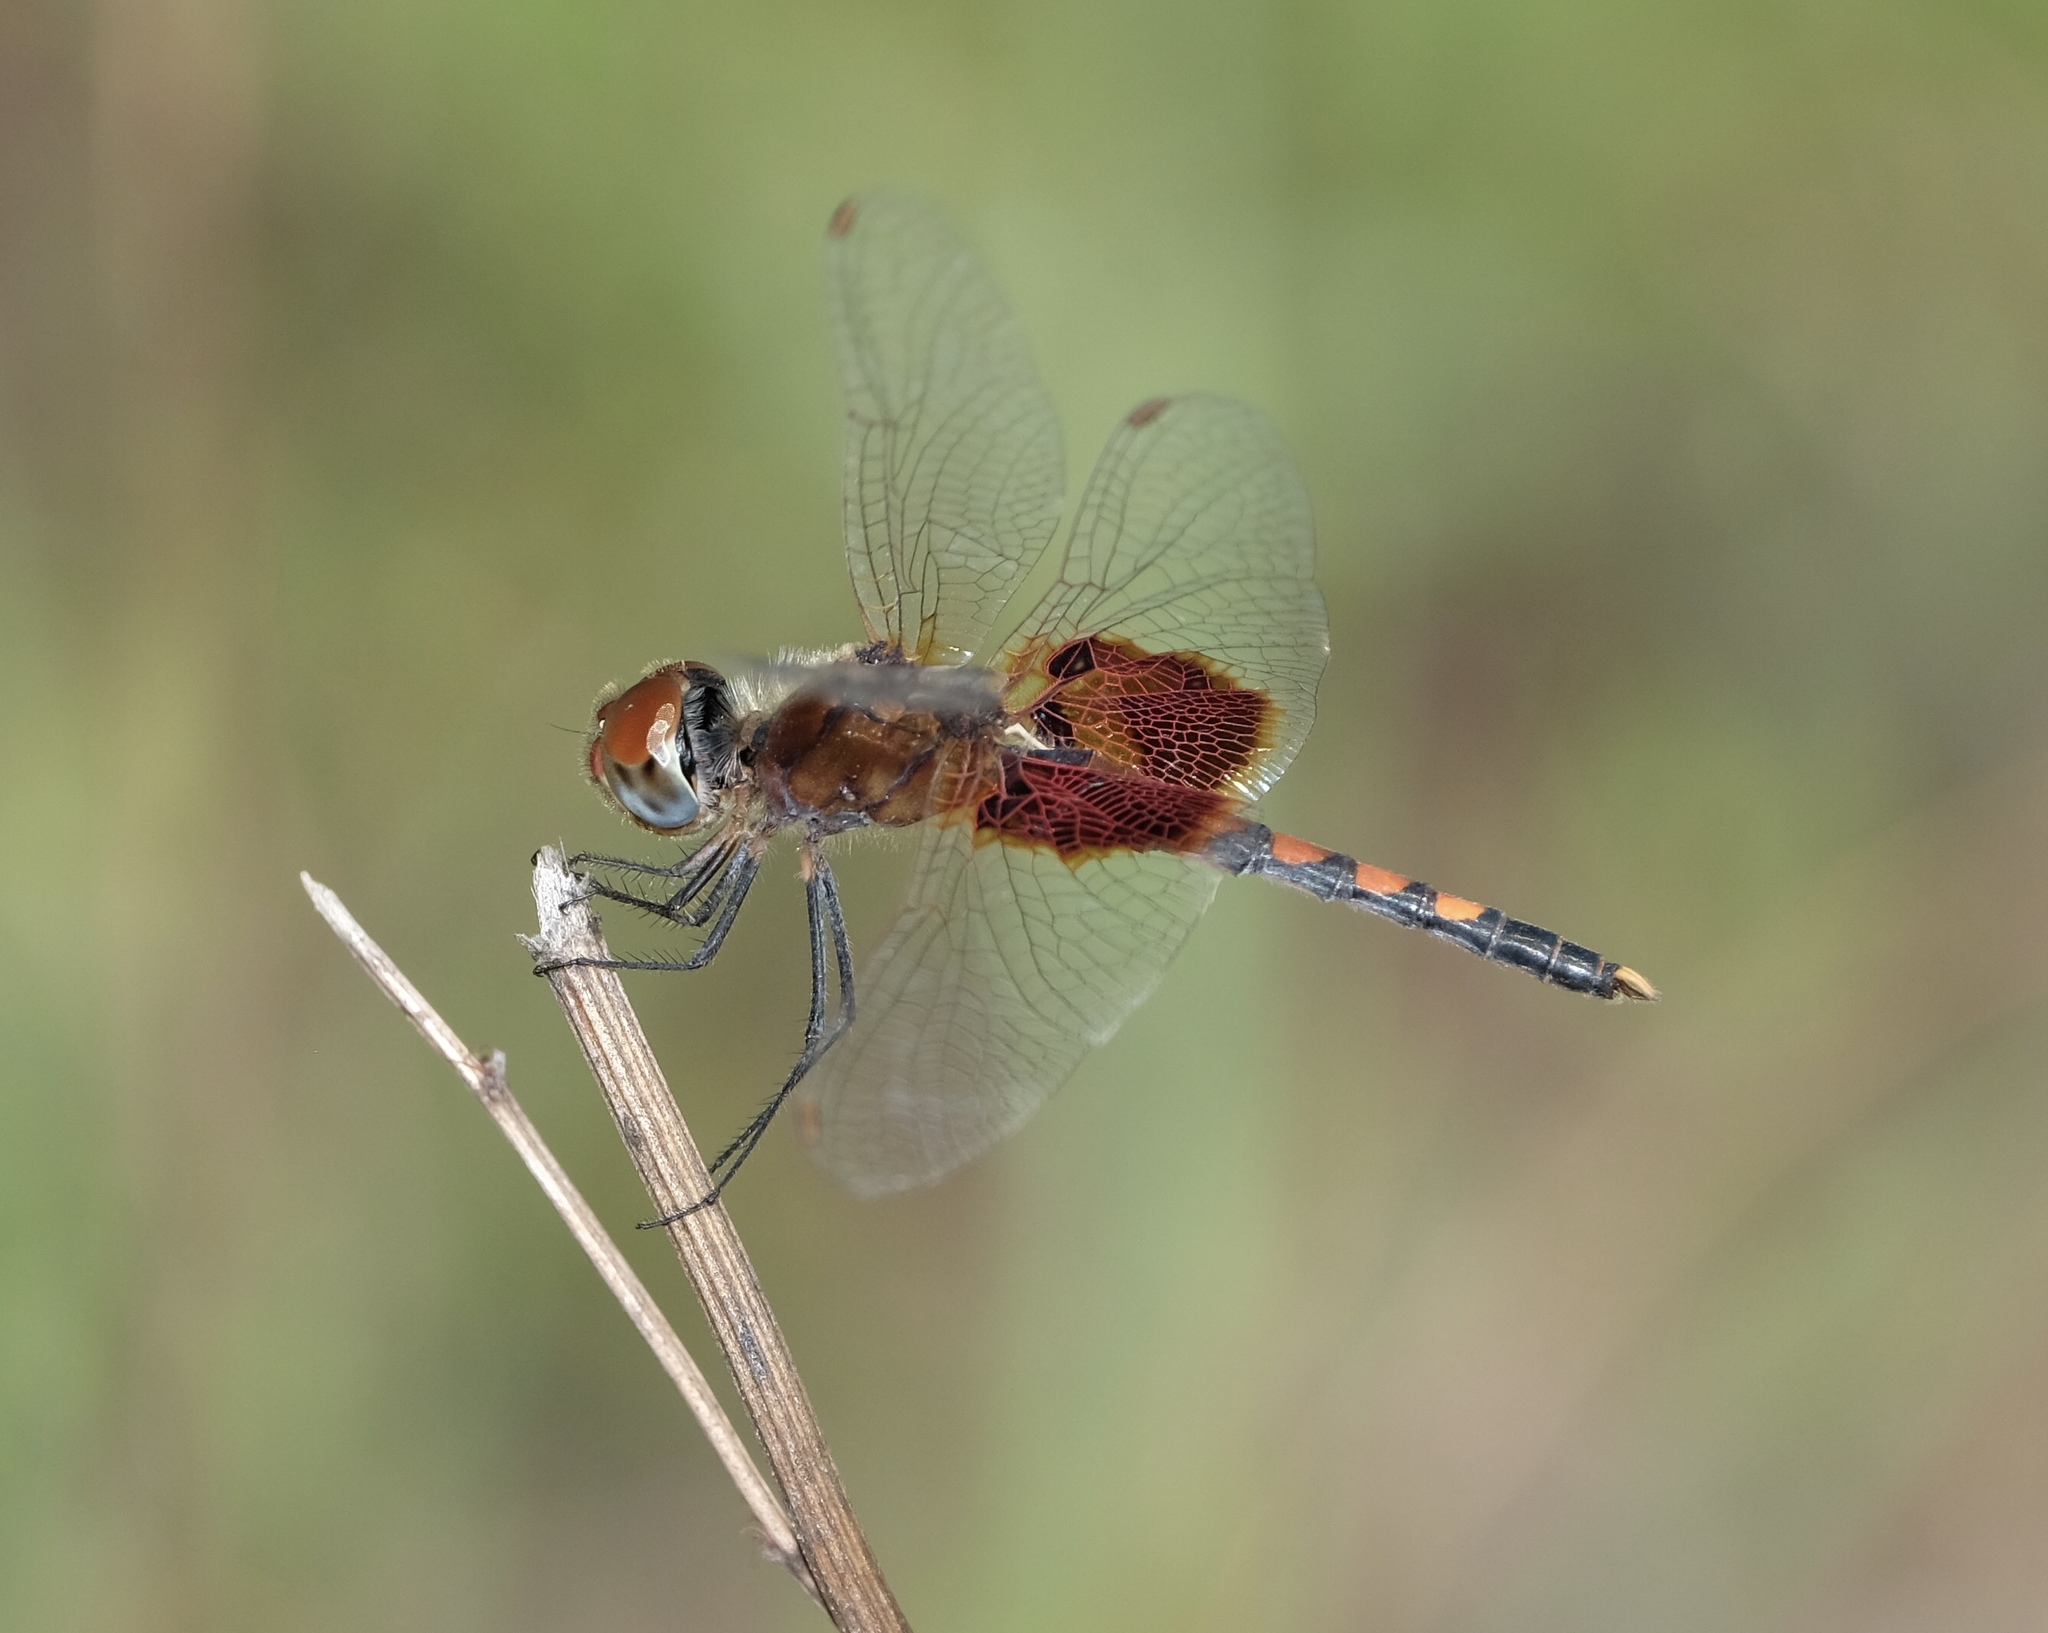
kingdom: Animalia
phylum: Arthropoda
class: Insecta
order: Odonata
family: Libellulidae
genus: Celithemis
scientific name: Celithemis amanda
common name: Amanda's pennant
